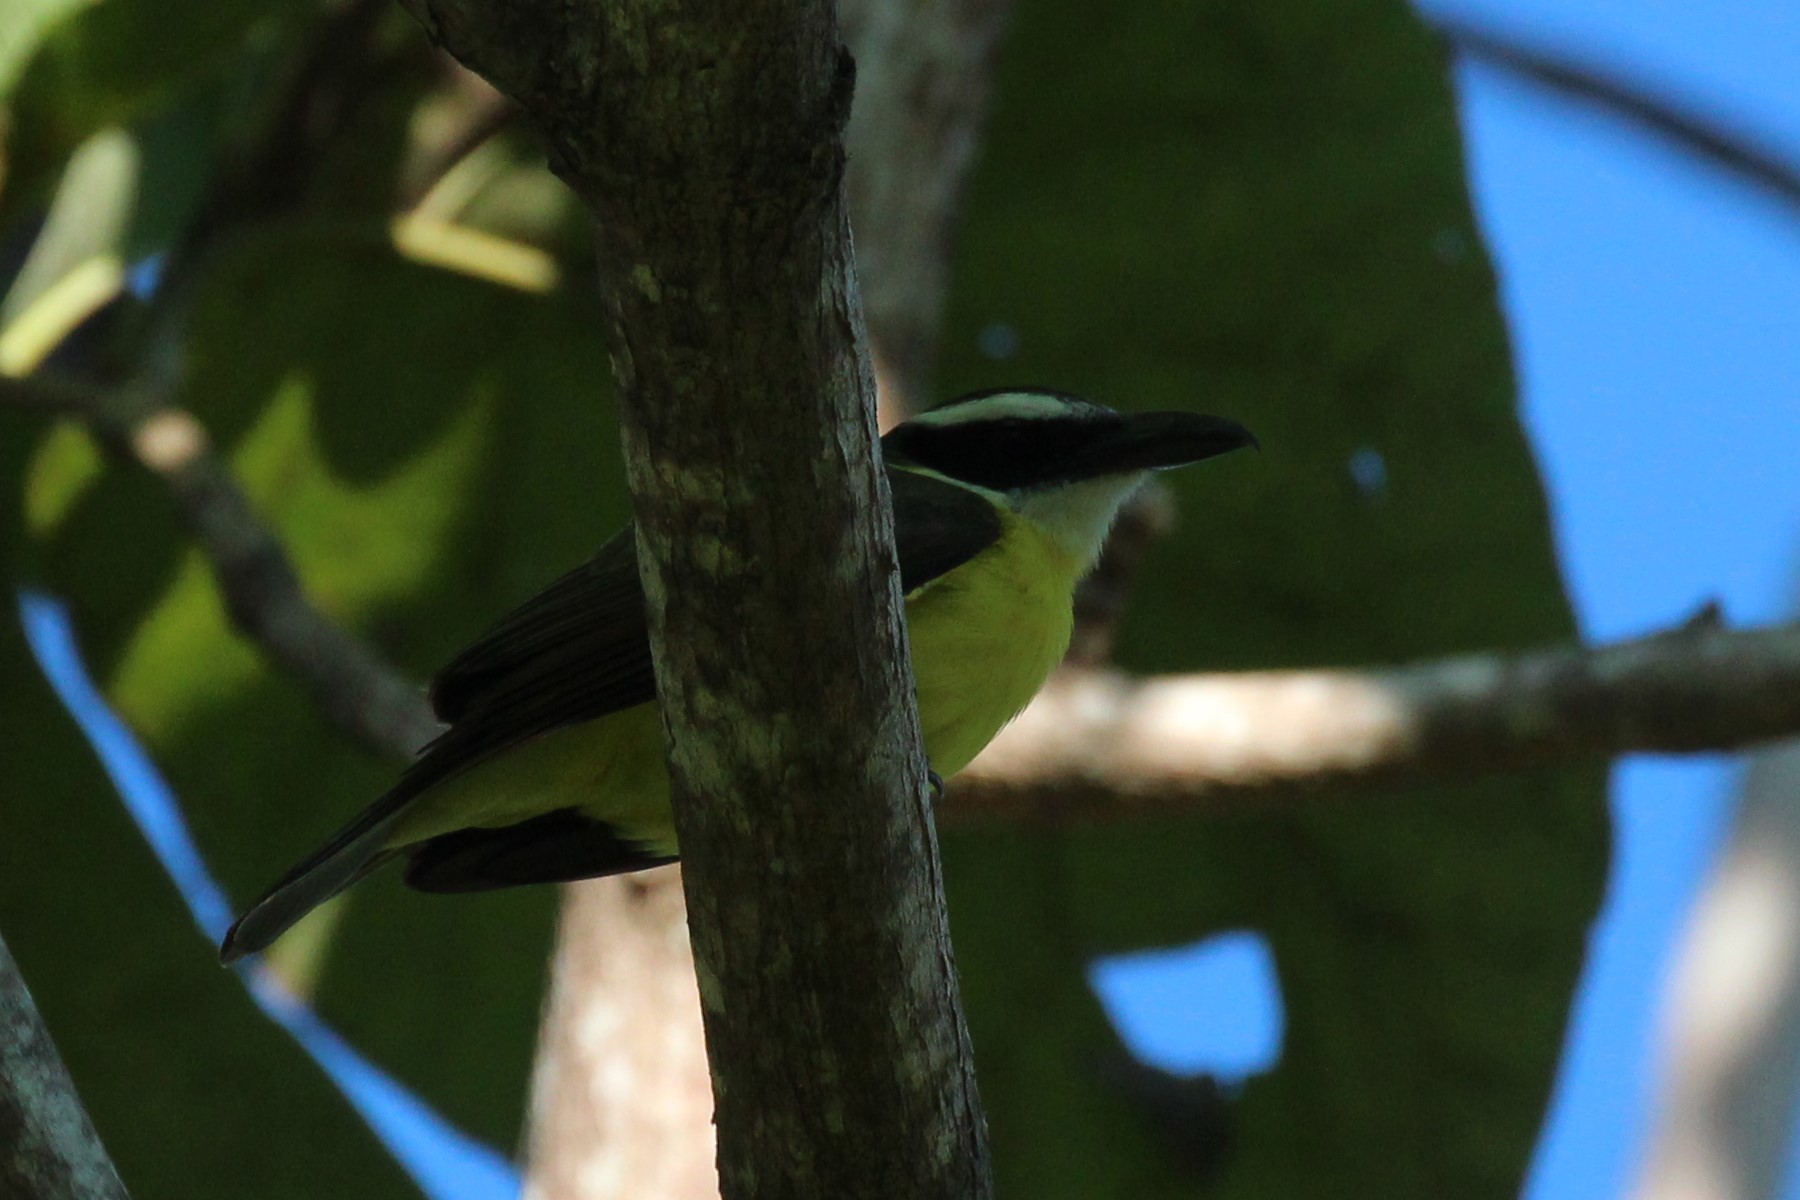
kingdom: Animalia
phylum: Chordata
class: Aves
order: Passeriformes
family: Tyrannidae
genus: Megarynchus
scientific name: Megarynchus pitangua
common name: Boat-billed flycatcher
